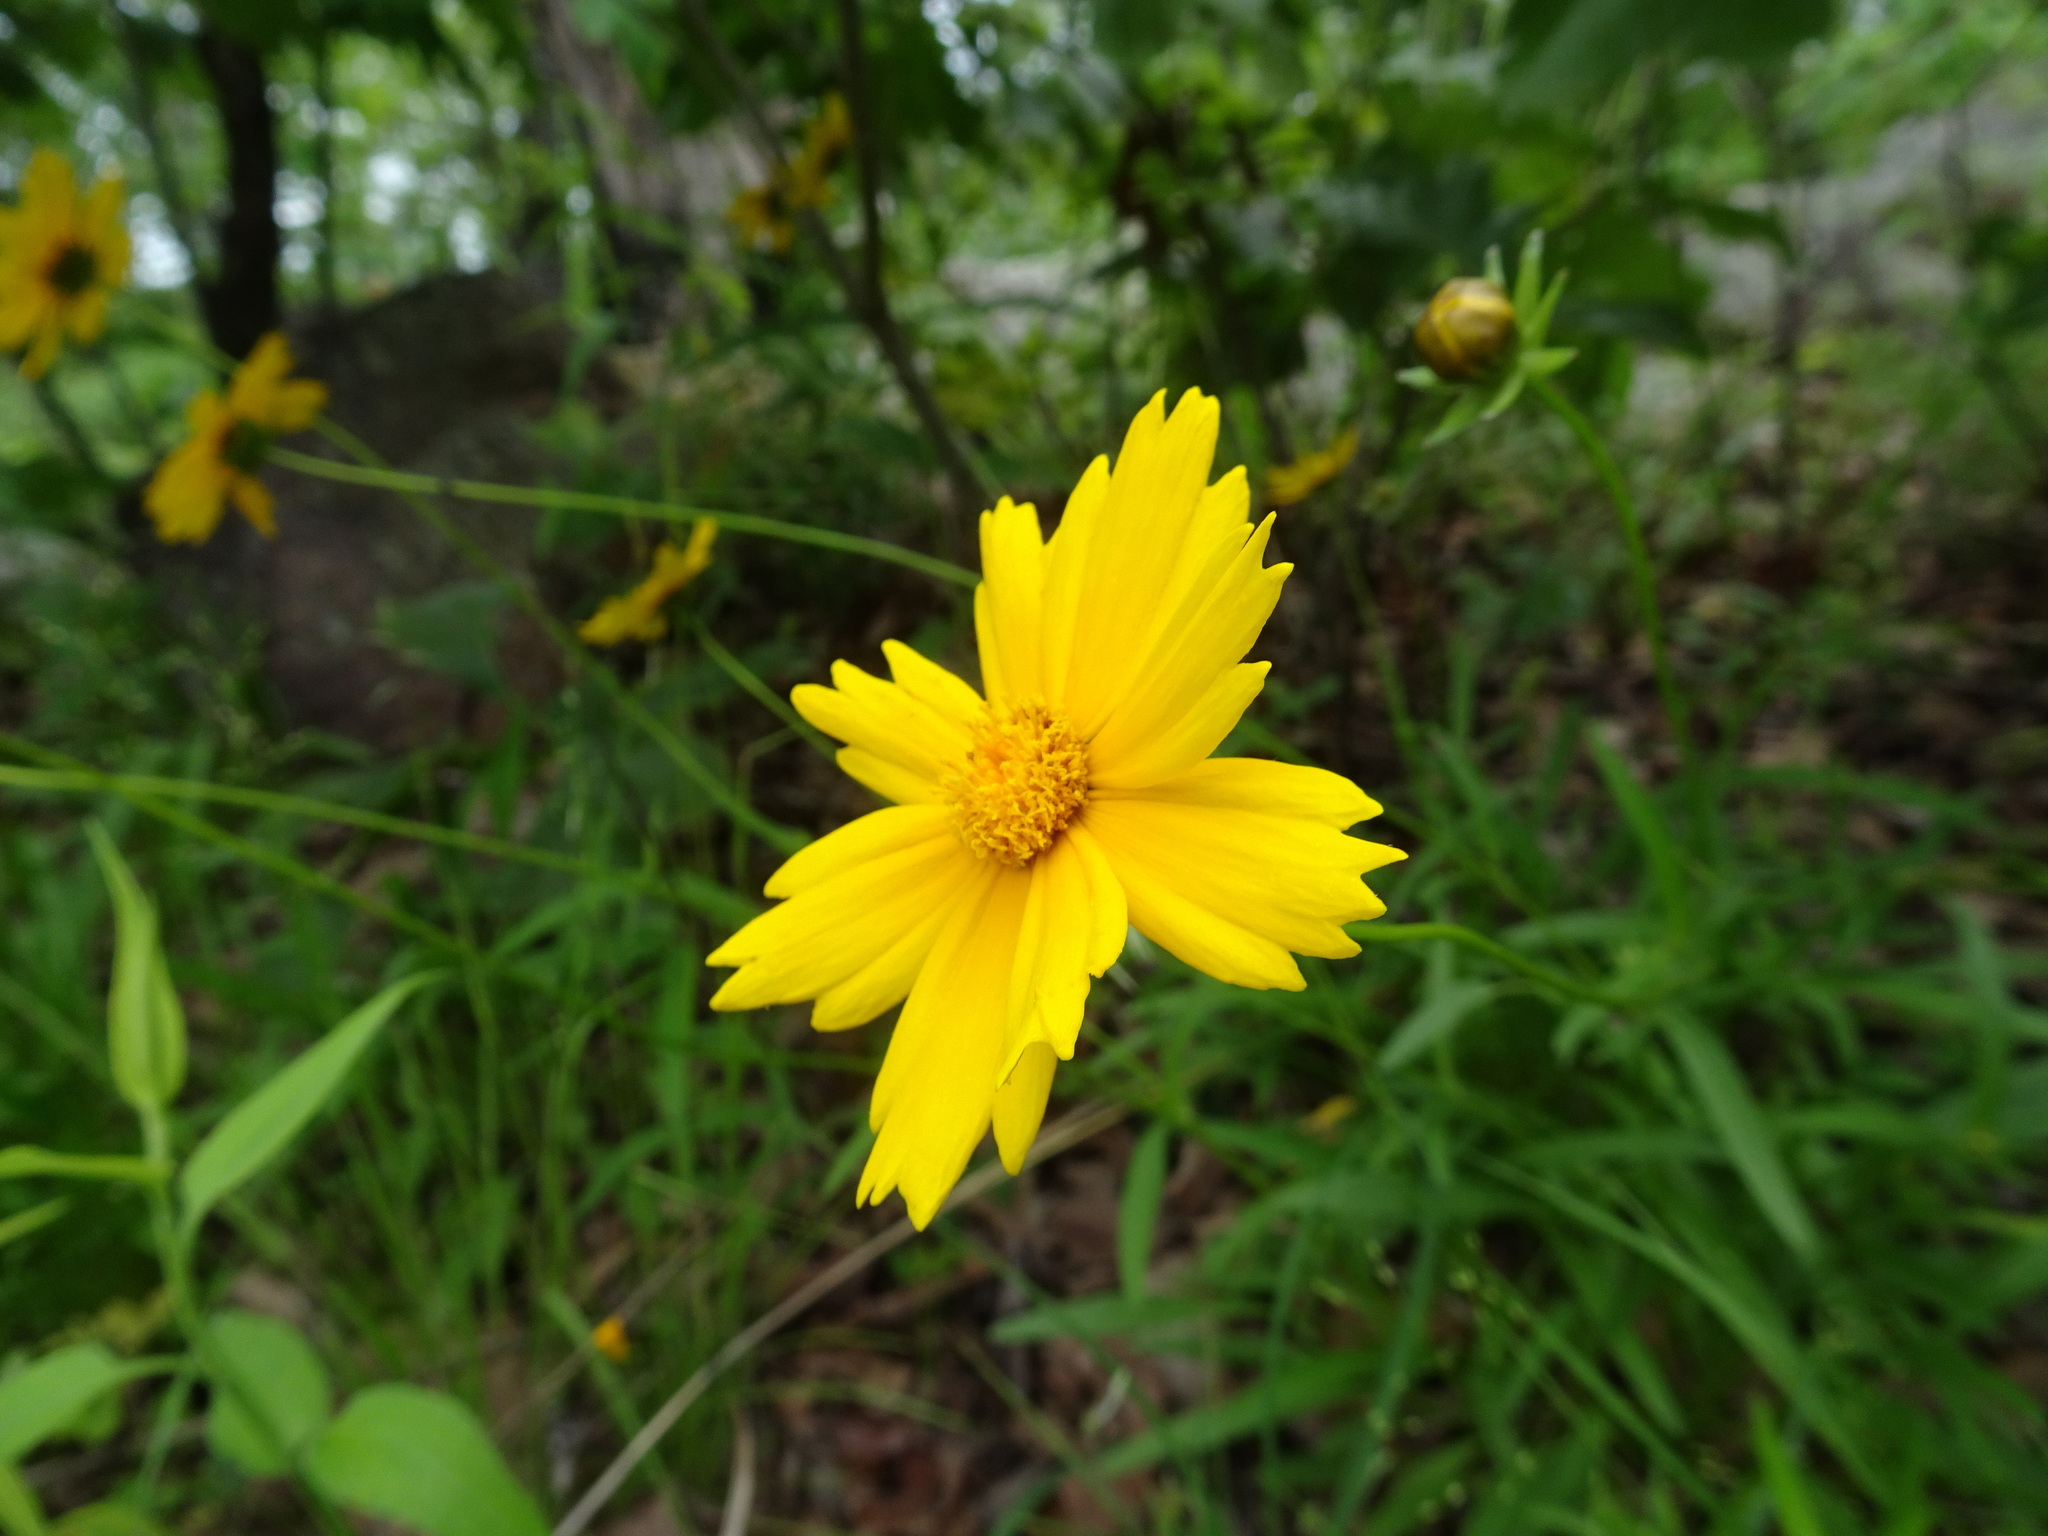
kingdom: Plantae
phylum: Tracheophyta
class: Magnoliopsida
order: Asterales
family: Asteraceae
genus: Coreopsis
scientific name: Coreopsis lanceolata
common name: Garden coreopsis
